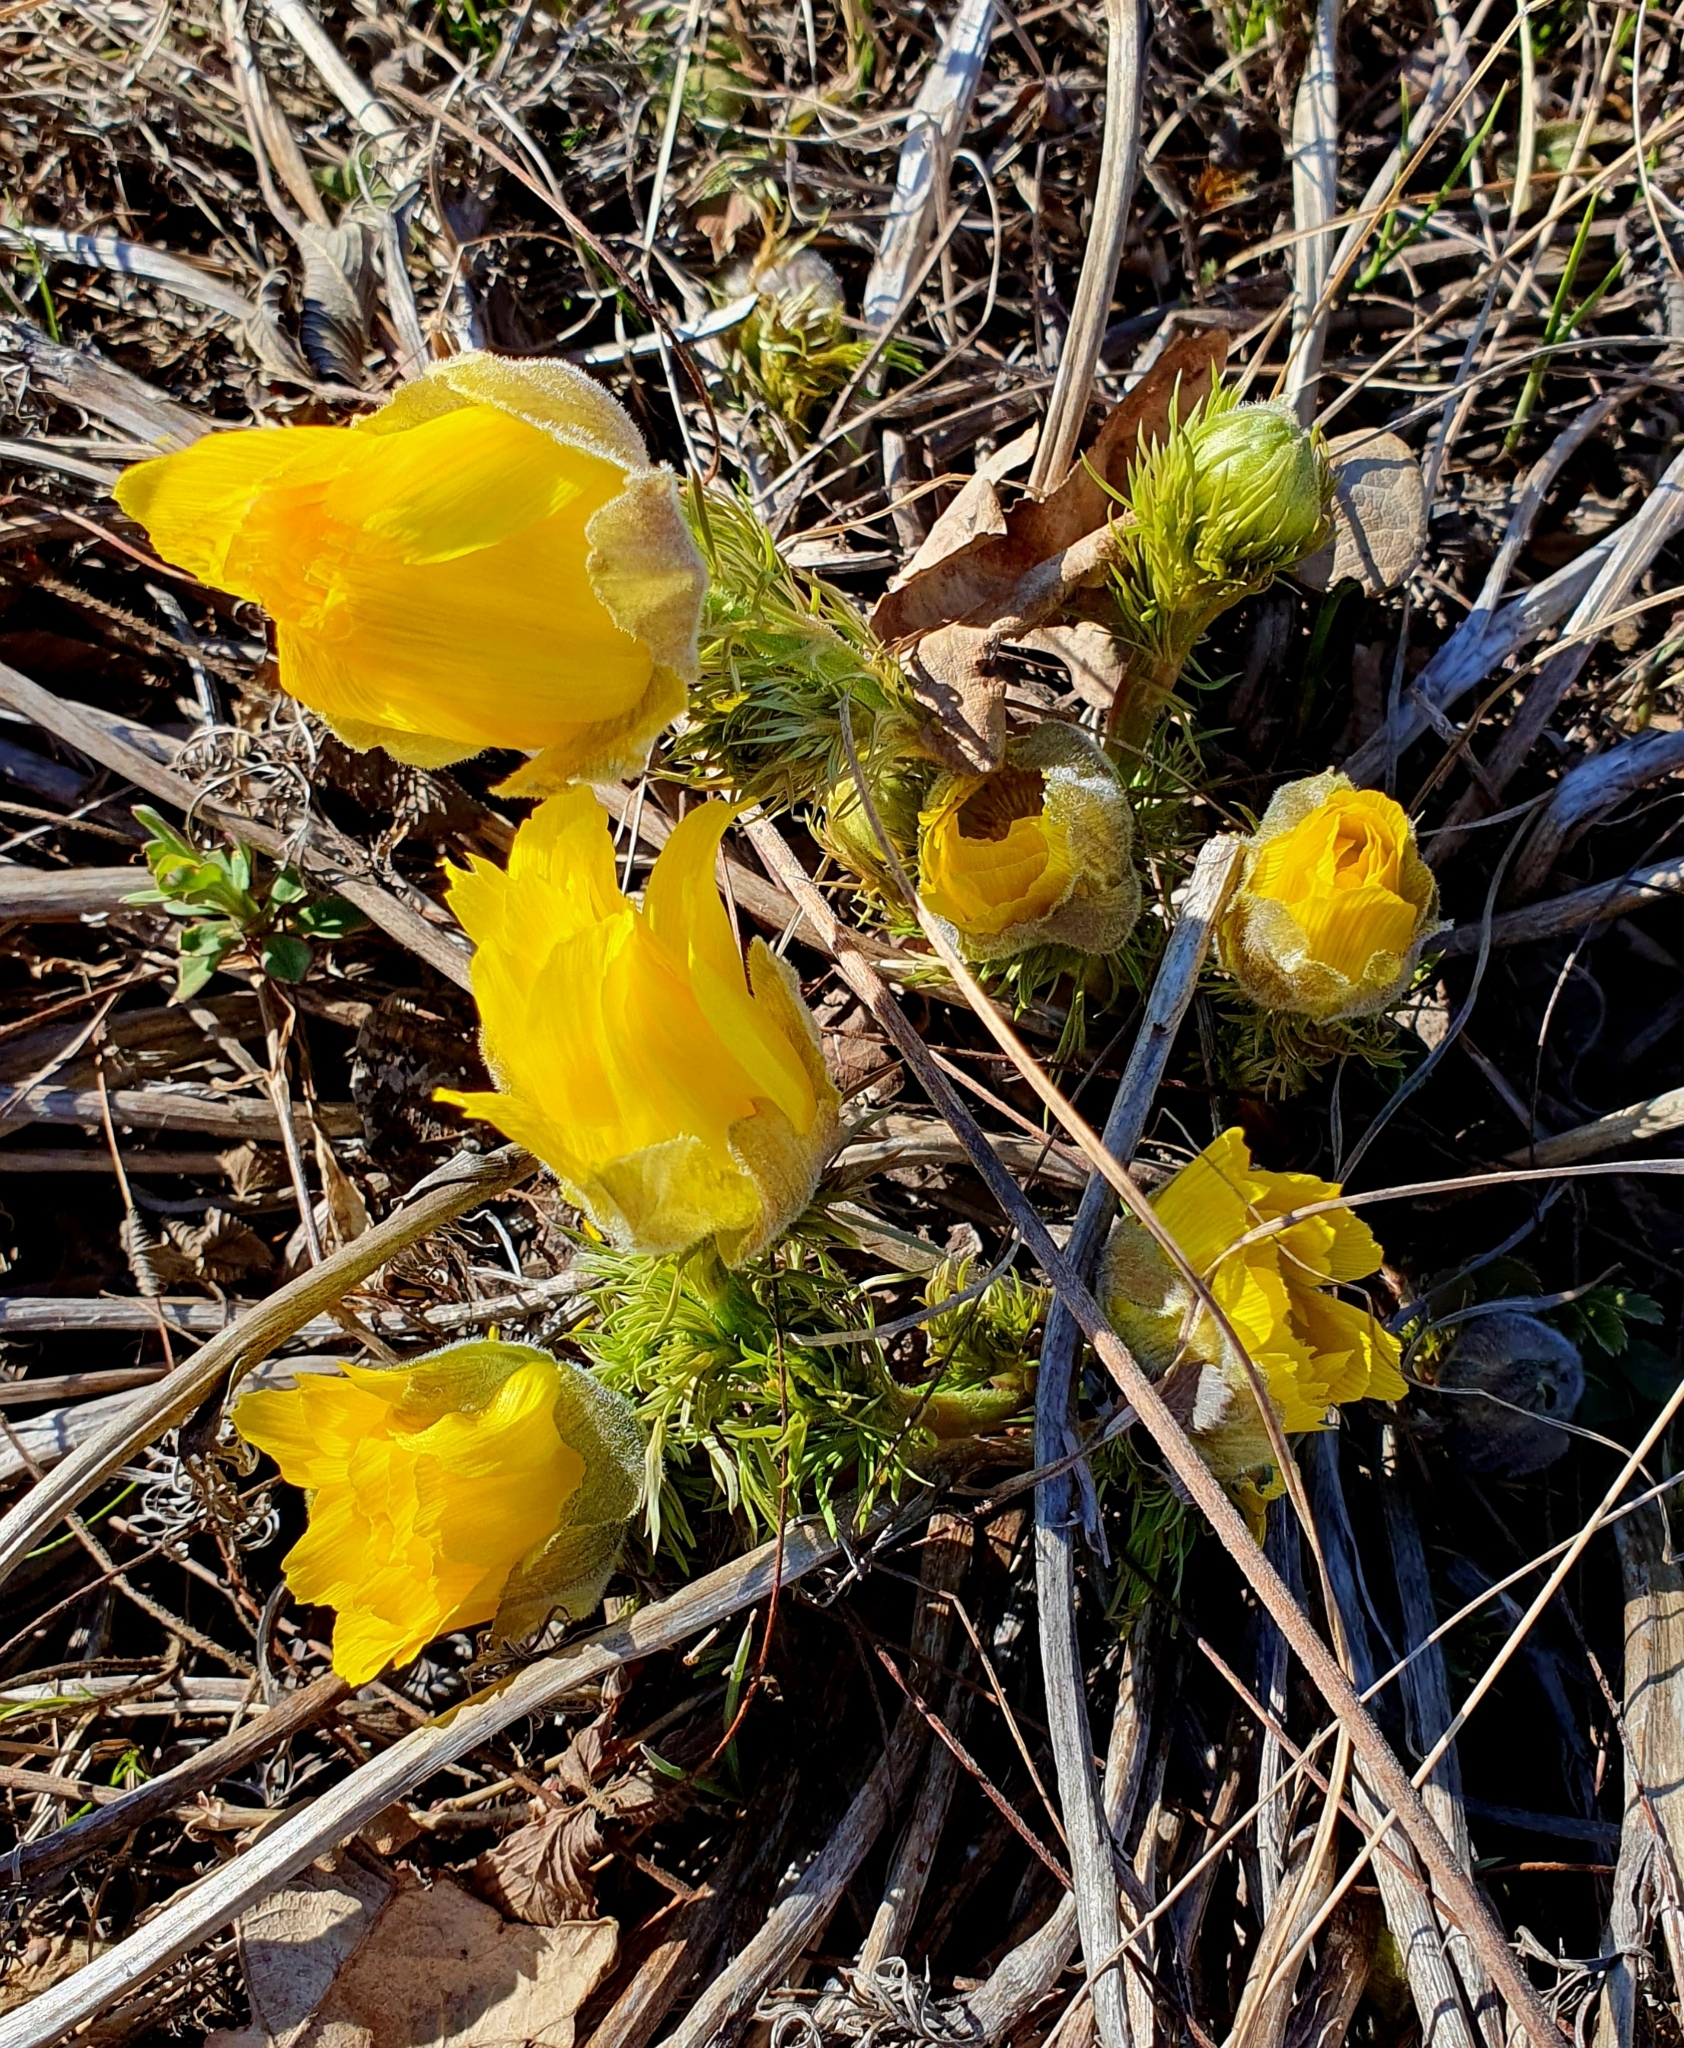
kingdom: Plantae
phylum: Tracheophyta
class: Magnoliopsida
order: Ranunculales
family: Ranunculaceae
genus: Adonis
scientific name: Adonis vernalis
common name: Yellow pheasants-eye
